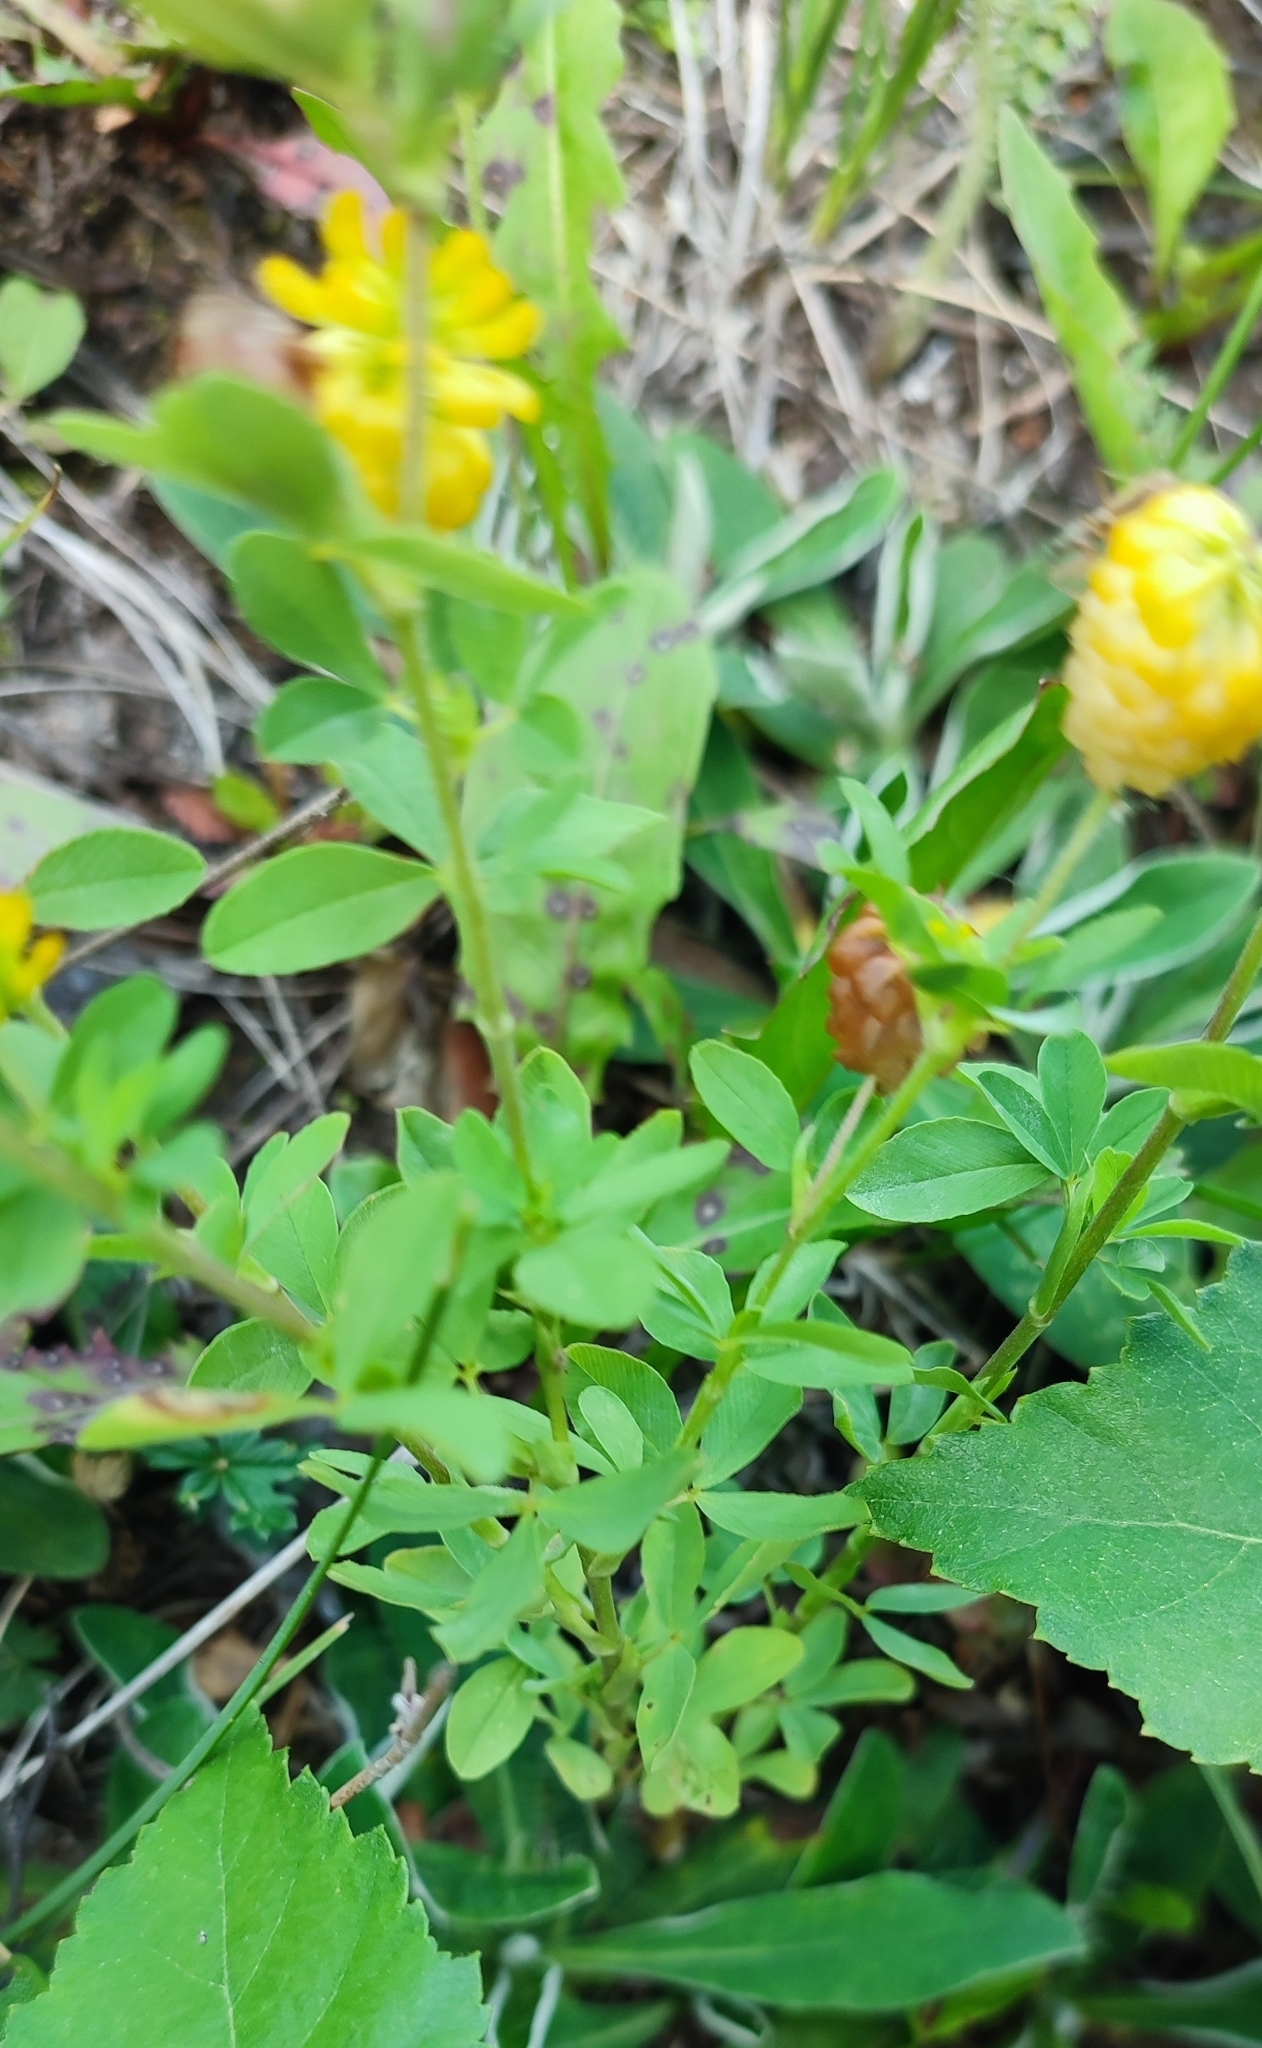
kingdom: Plantae
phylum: Tracheophyta
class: Magnoliopsida
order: Fabales
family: Fabaceae
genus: Trifolium
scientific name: Trifolium aureum
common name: Golden clover
